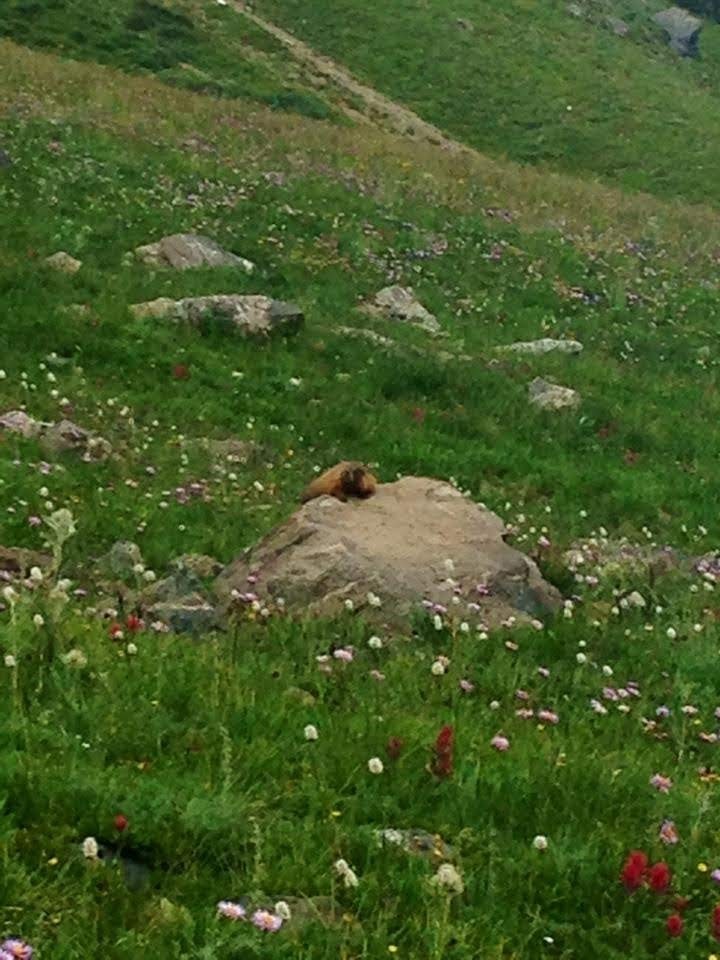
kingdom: Animalia
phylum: Chordata
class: Mammalia
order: Rodentia
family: Sciuridae
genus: Marmota
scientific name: Marmota flaviventris
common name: Yellow-bellied marmot
